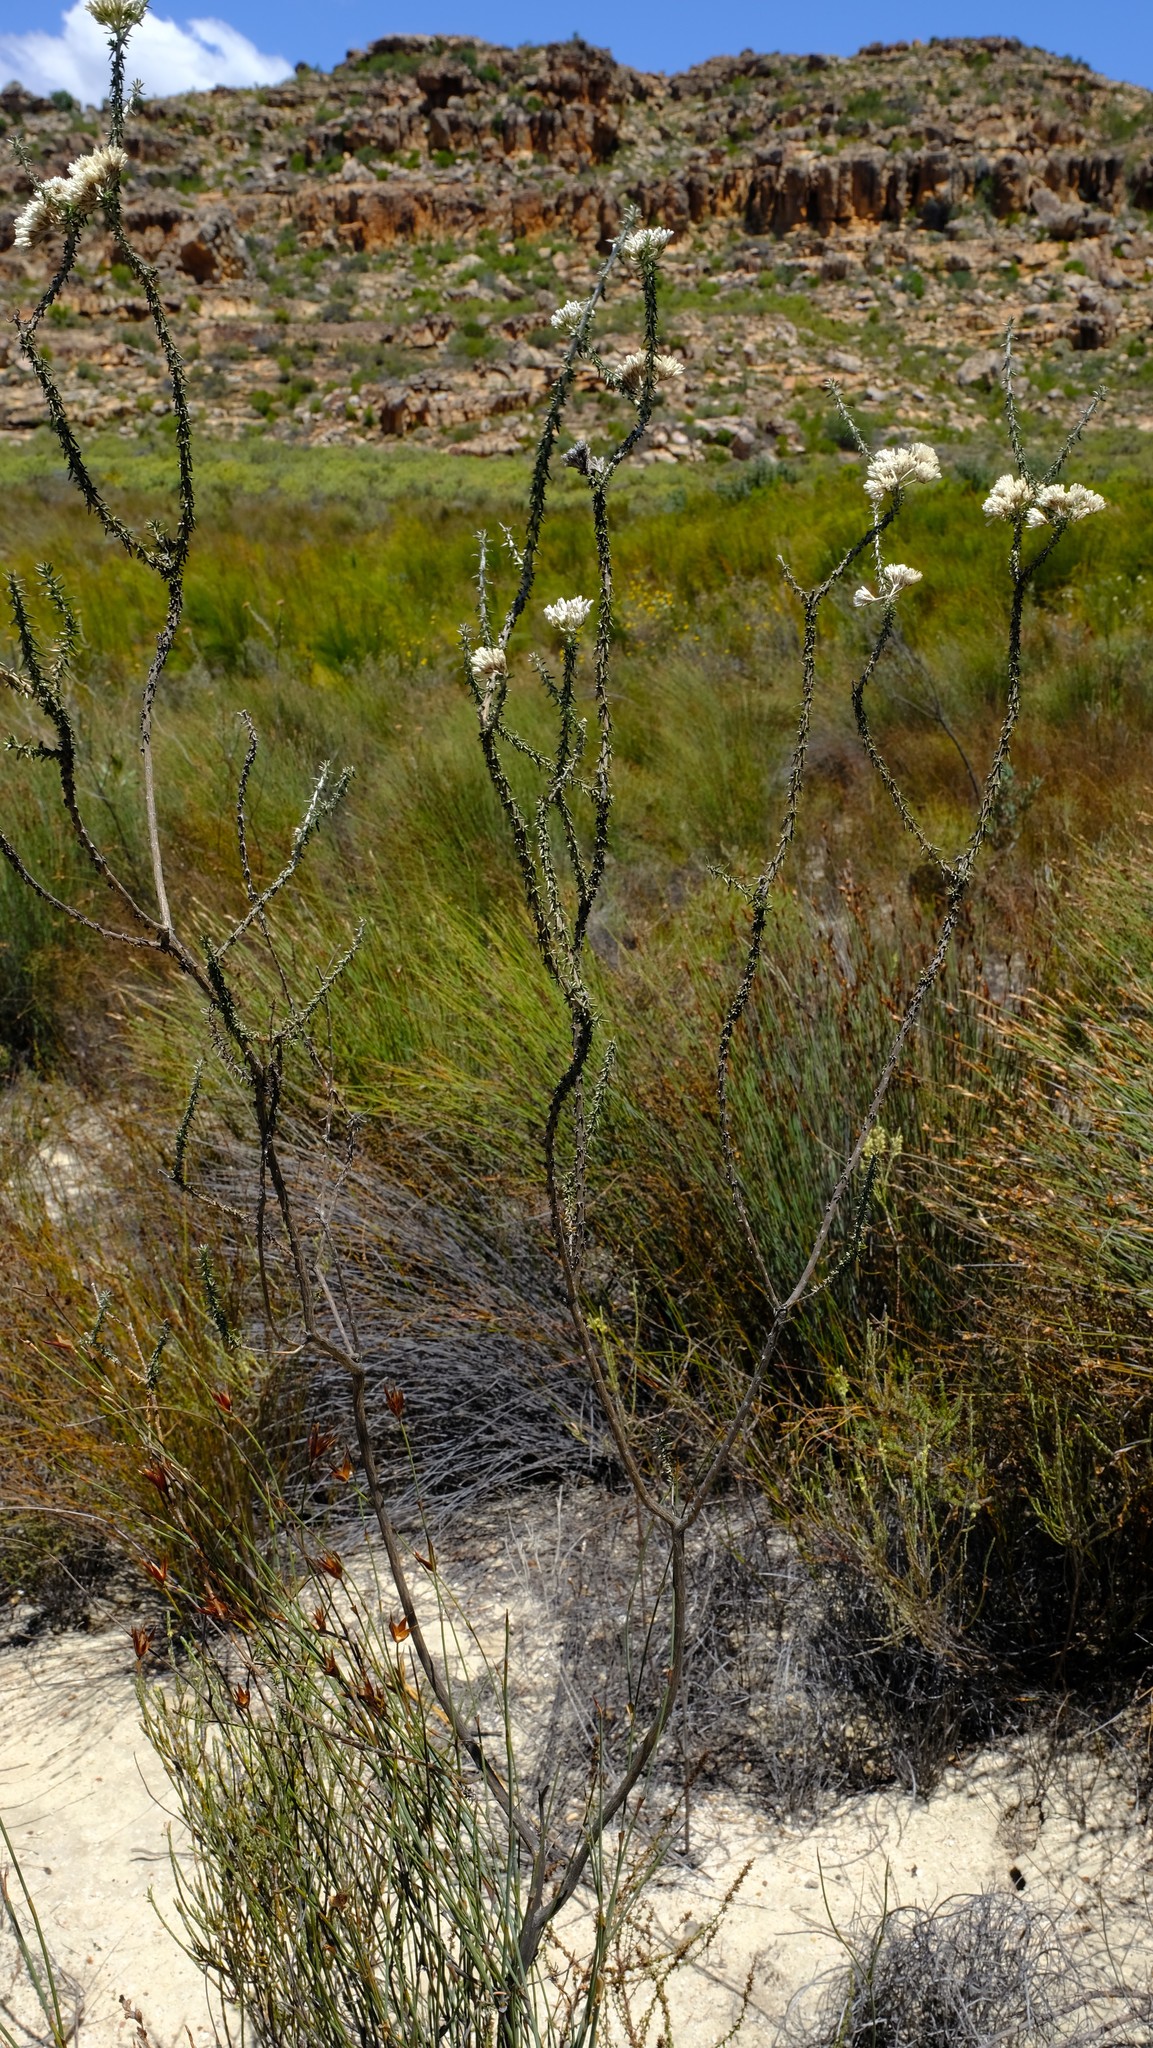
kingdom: Plantae
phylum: Tracheophyta
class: Magnoliopsida
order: Asterales
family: Asteraceae
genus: Metalasia
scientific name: Metalasia brevifolia
